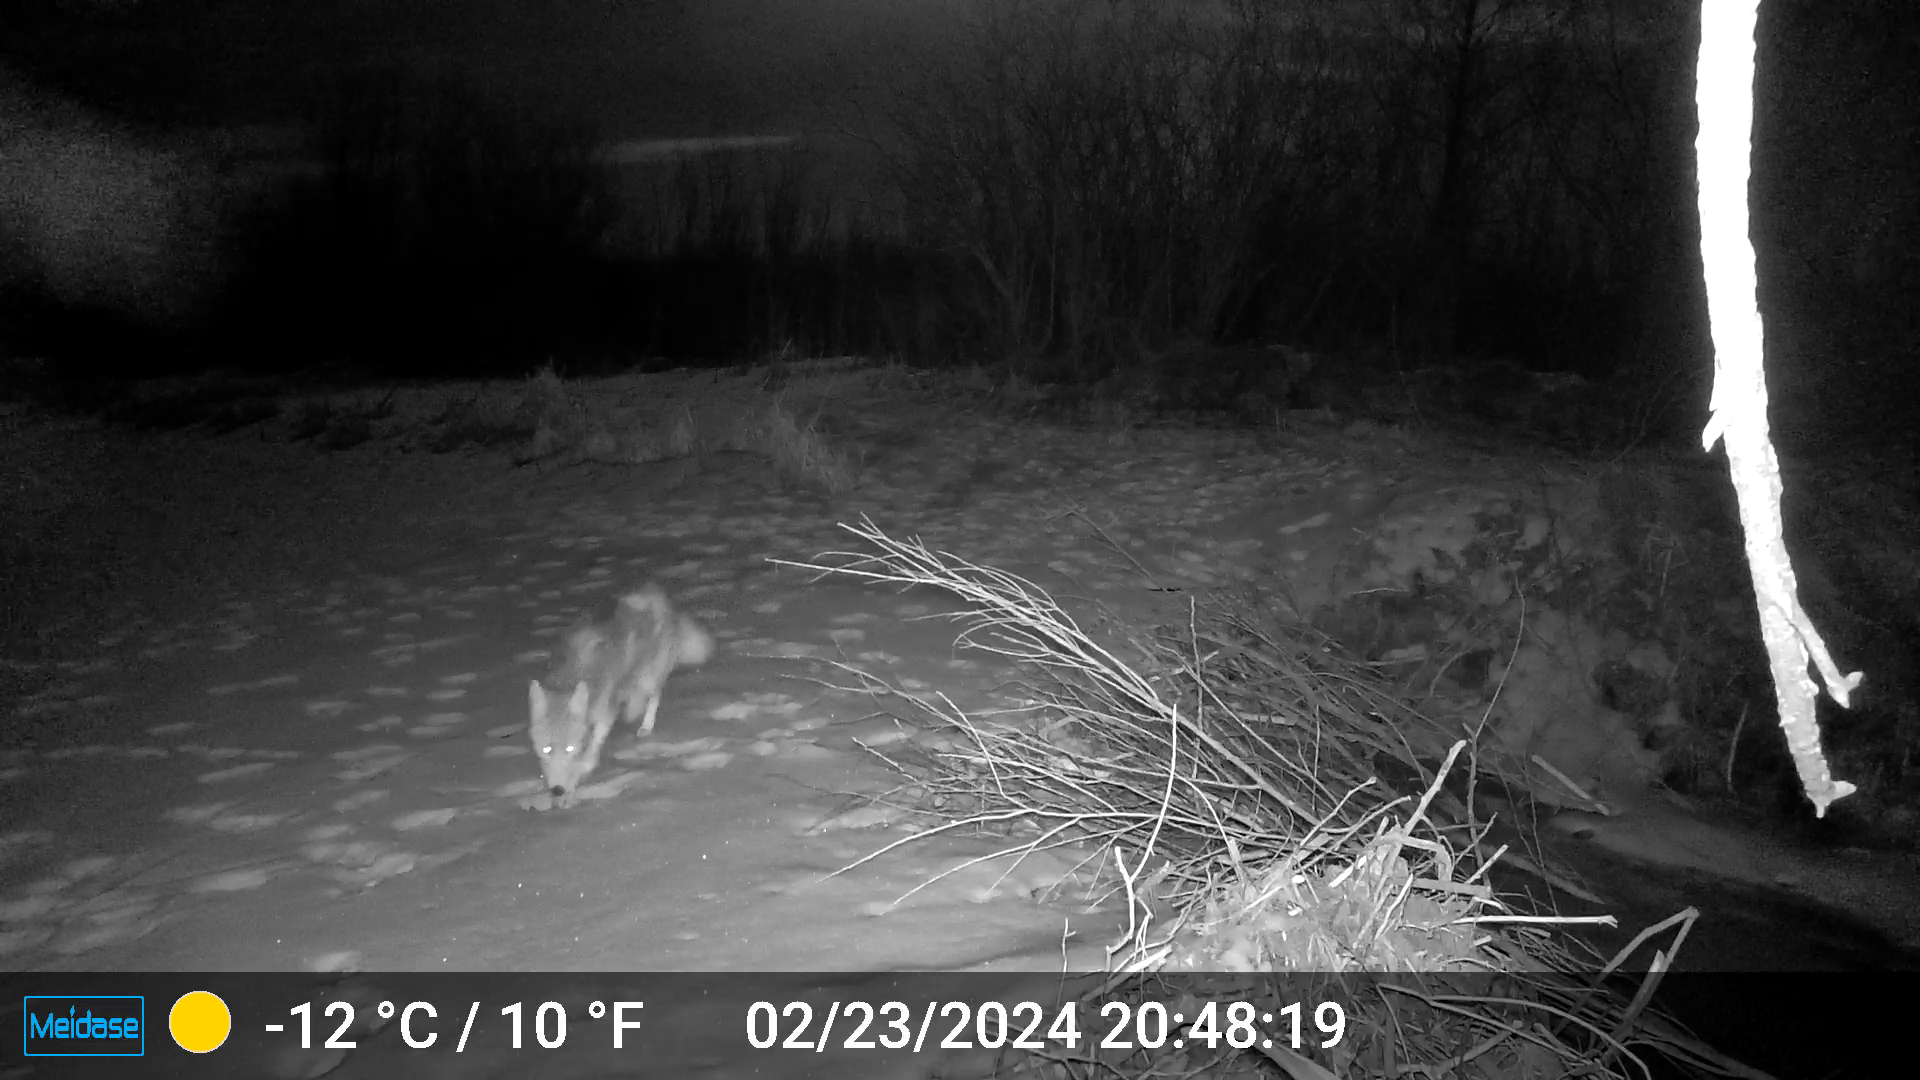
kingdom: Animalia
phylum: Chordata
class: Mammalia
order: Carnivora
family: Canidae
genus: Canis
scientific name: Canis latrans
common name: Coyote
